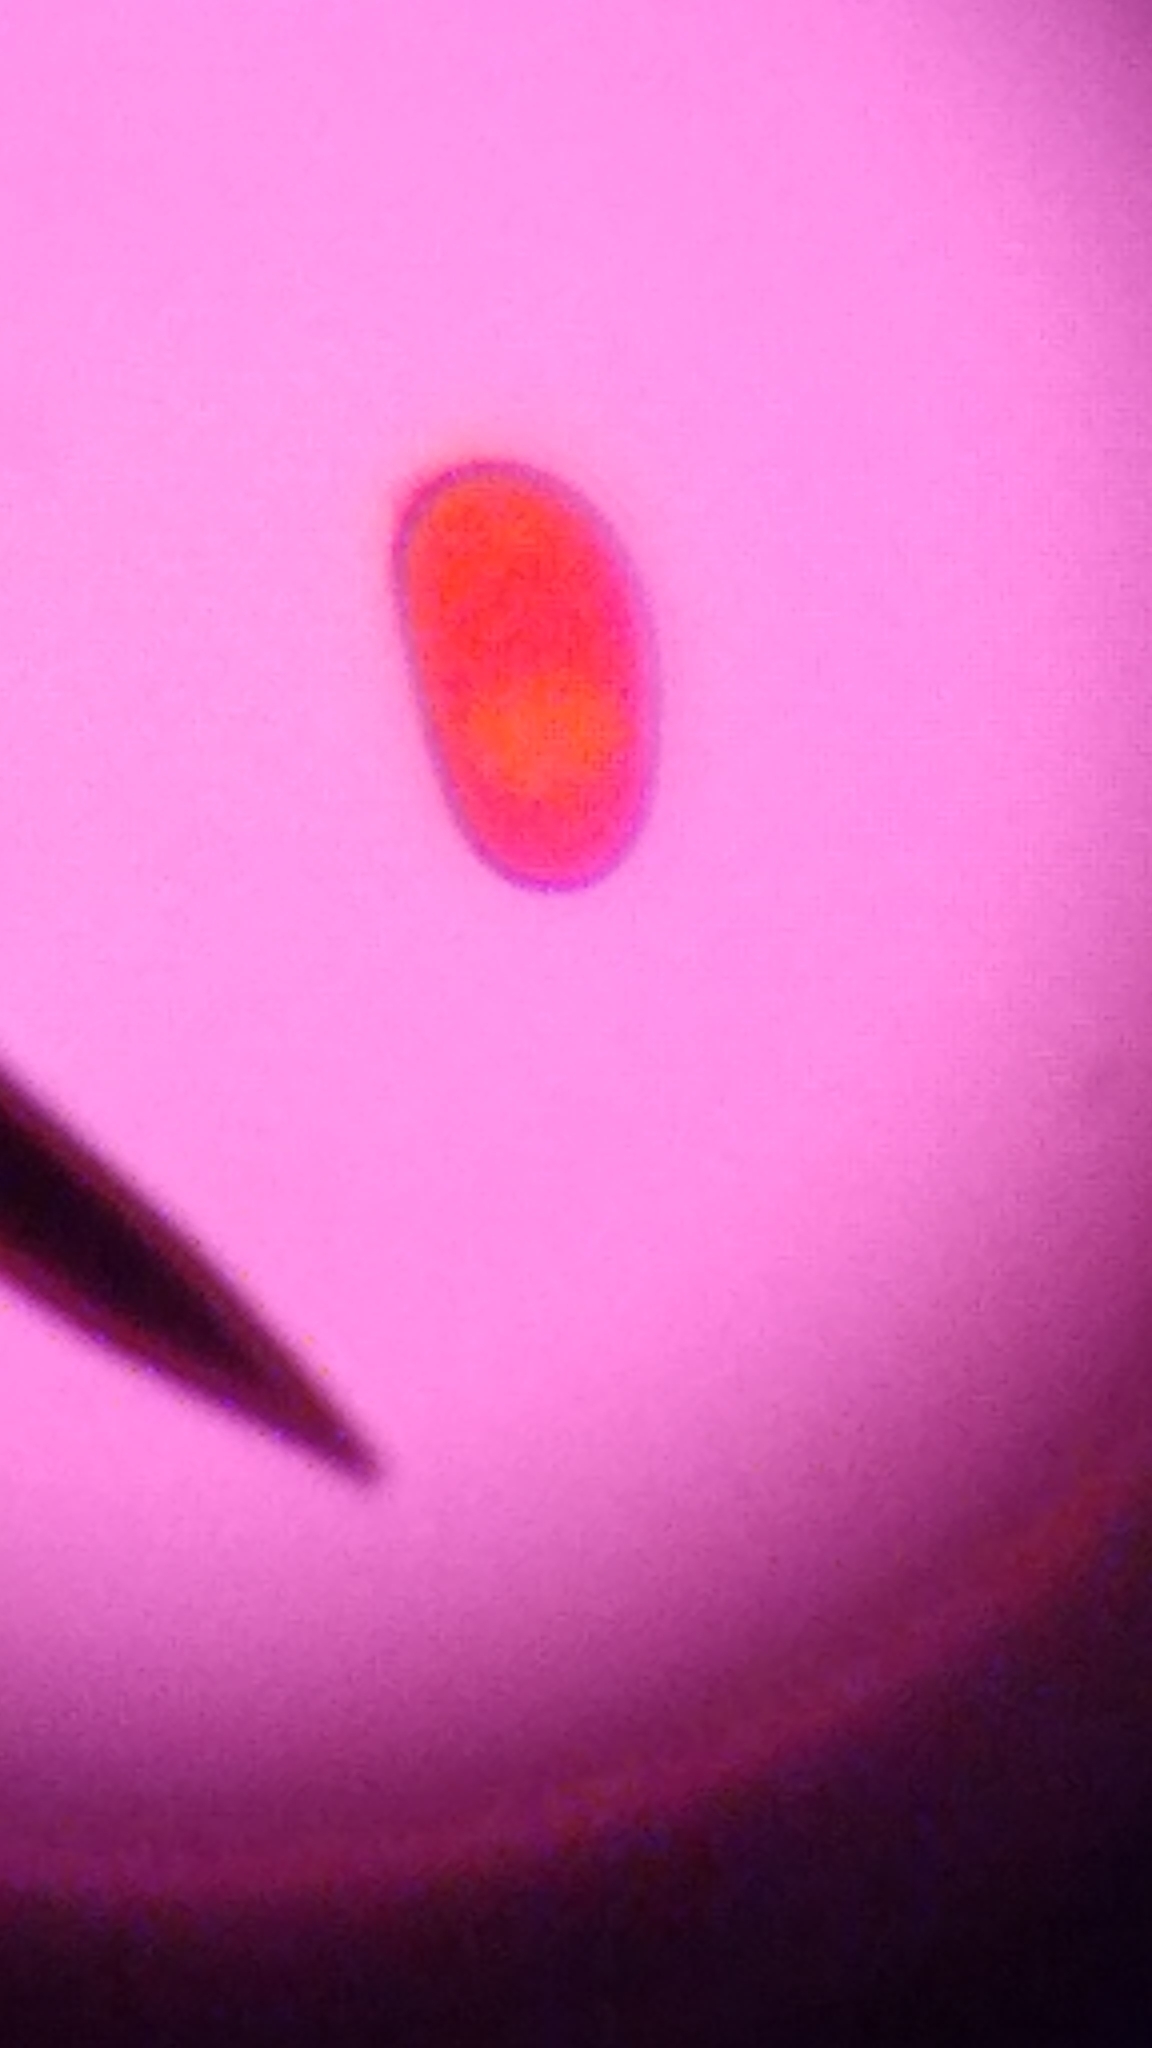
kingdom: Fungi
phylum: Basidiomycota
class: Agaricomycetes
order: Boletales
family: Serpulaceae
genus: Serpula
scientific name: Serpula himantioides
